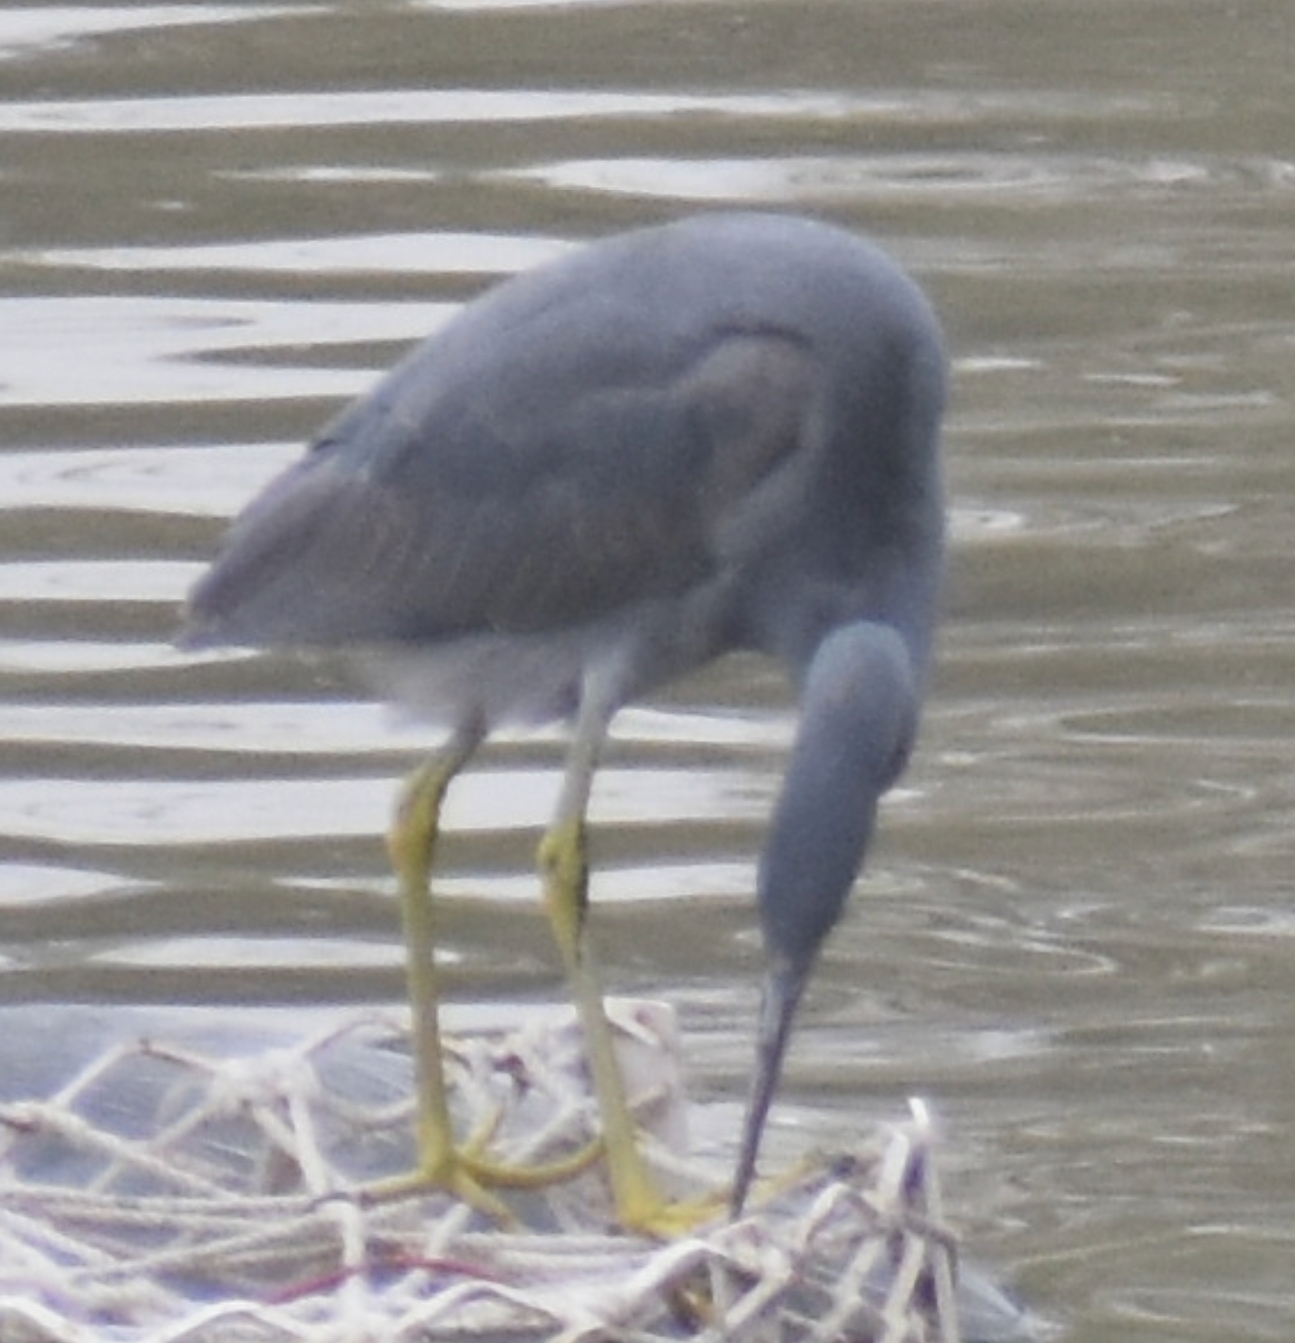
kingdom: Animalia
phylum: Chordata
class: Aves
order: Pelecaniformes
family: Ardeidae
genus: Egretta
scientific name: Egretta gularis
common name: Western reef-heron
